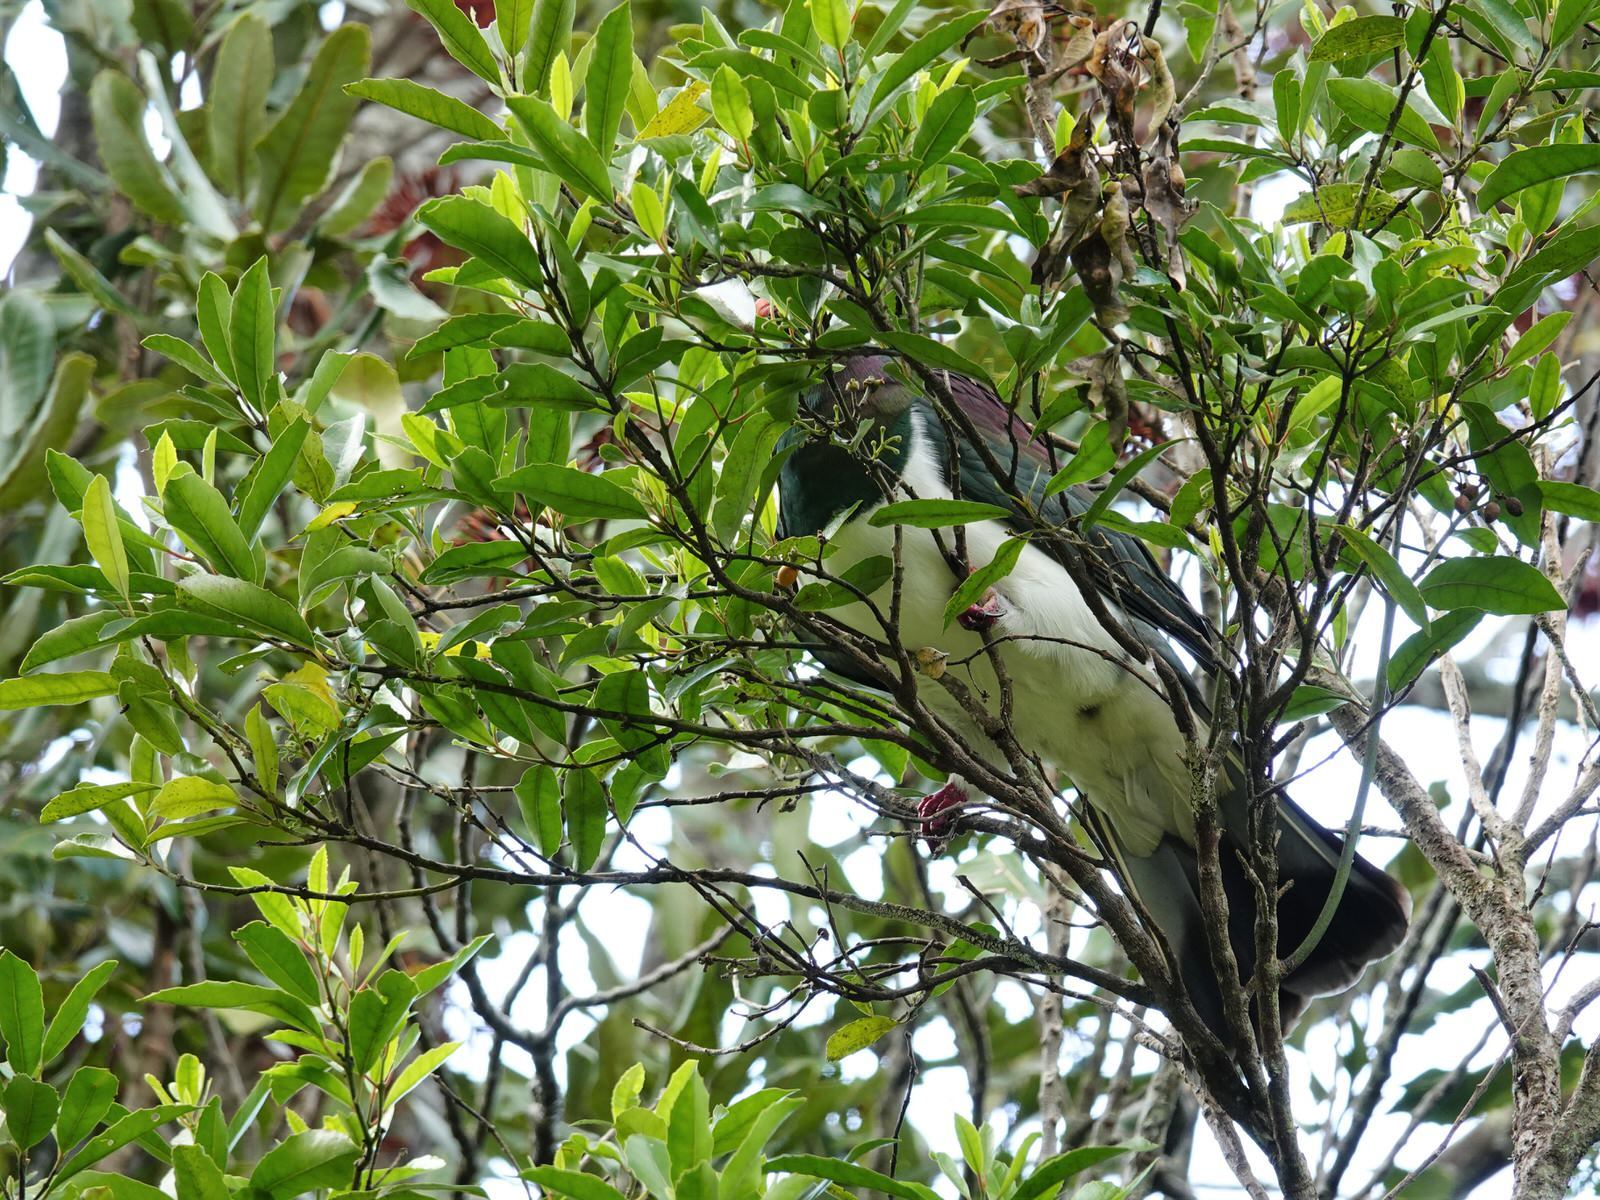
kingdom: Animalia
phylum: Chordata
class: Aves
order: Columbiformes
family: Columbidae
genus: Hemiphaga
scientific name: Hemiphaga novaeseelandiae
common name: New zealand pigeon
